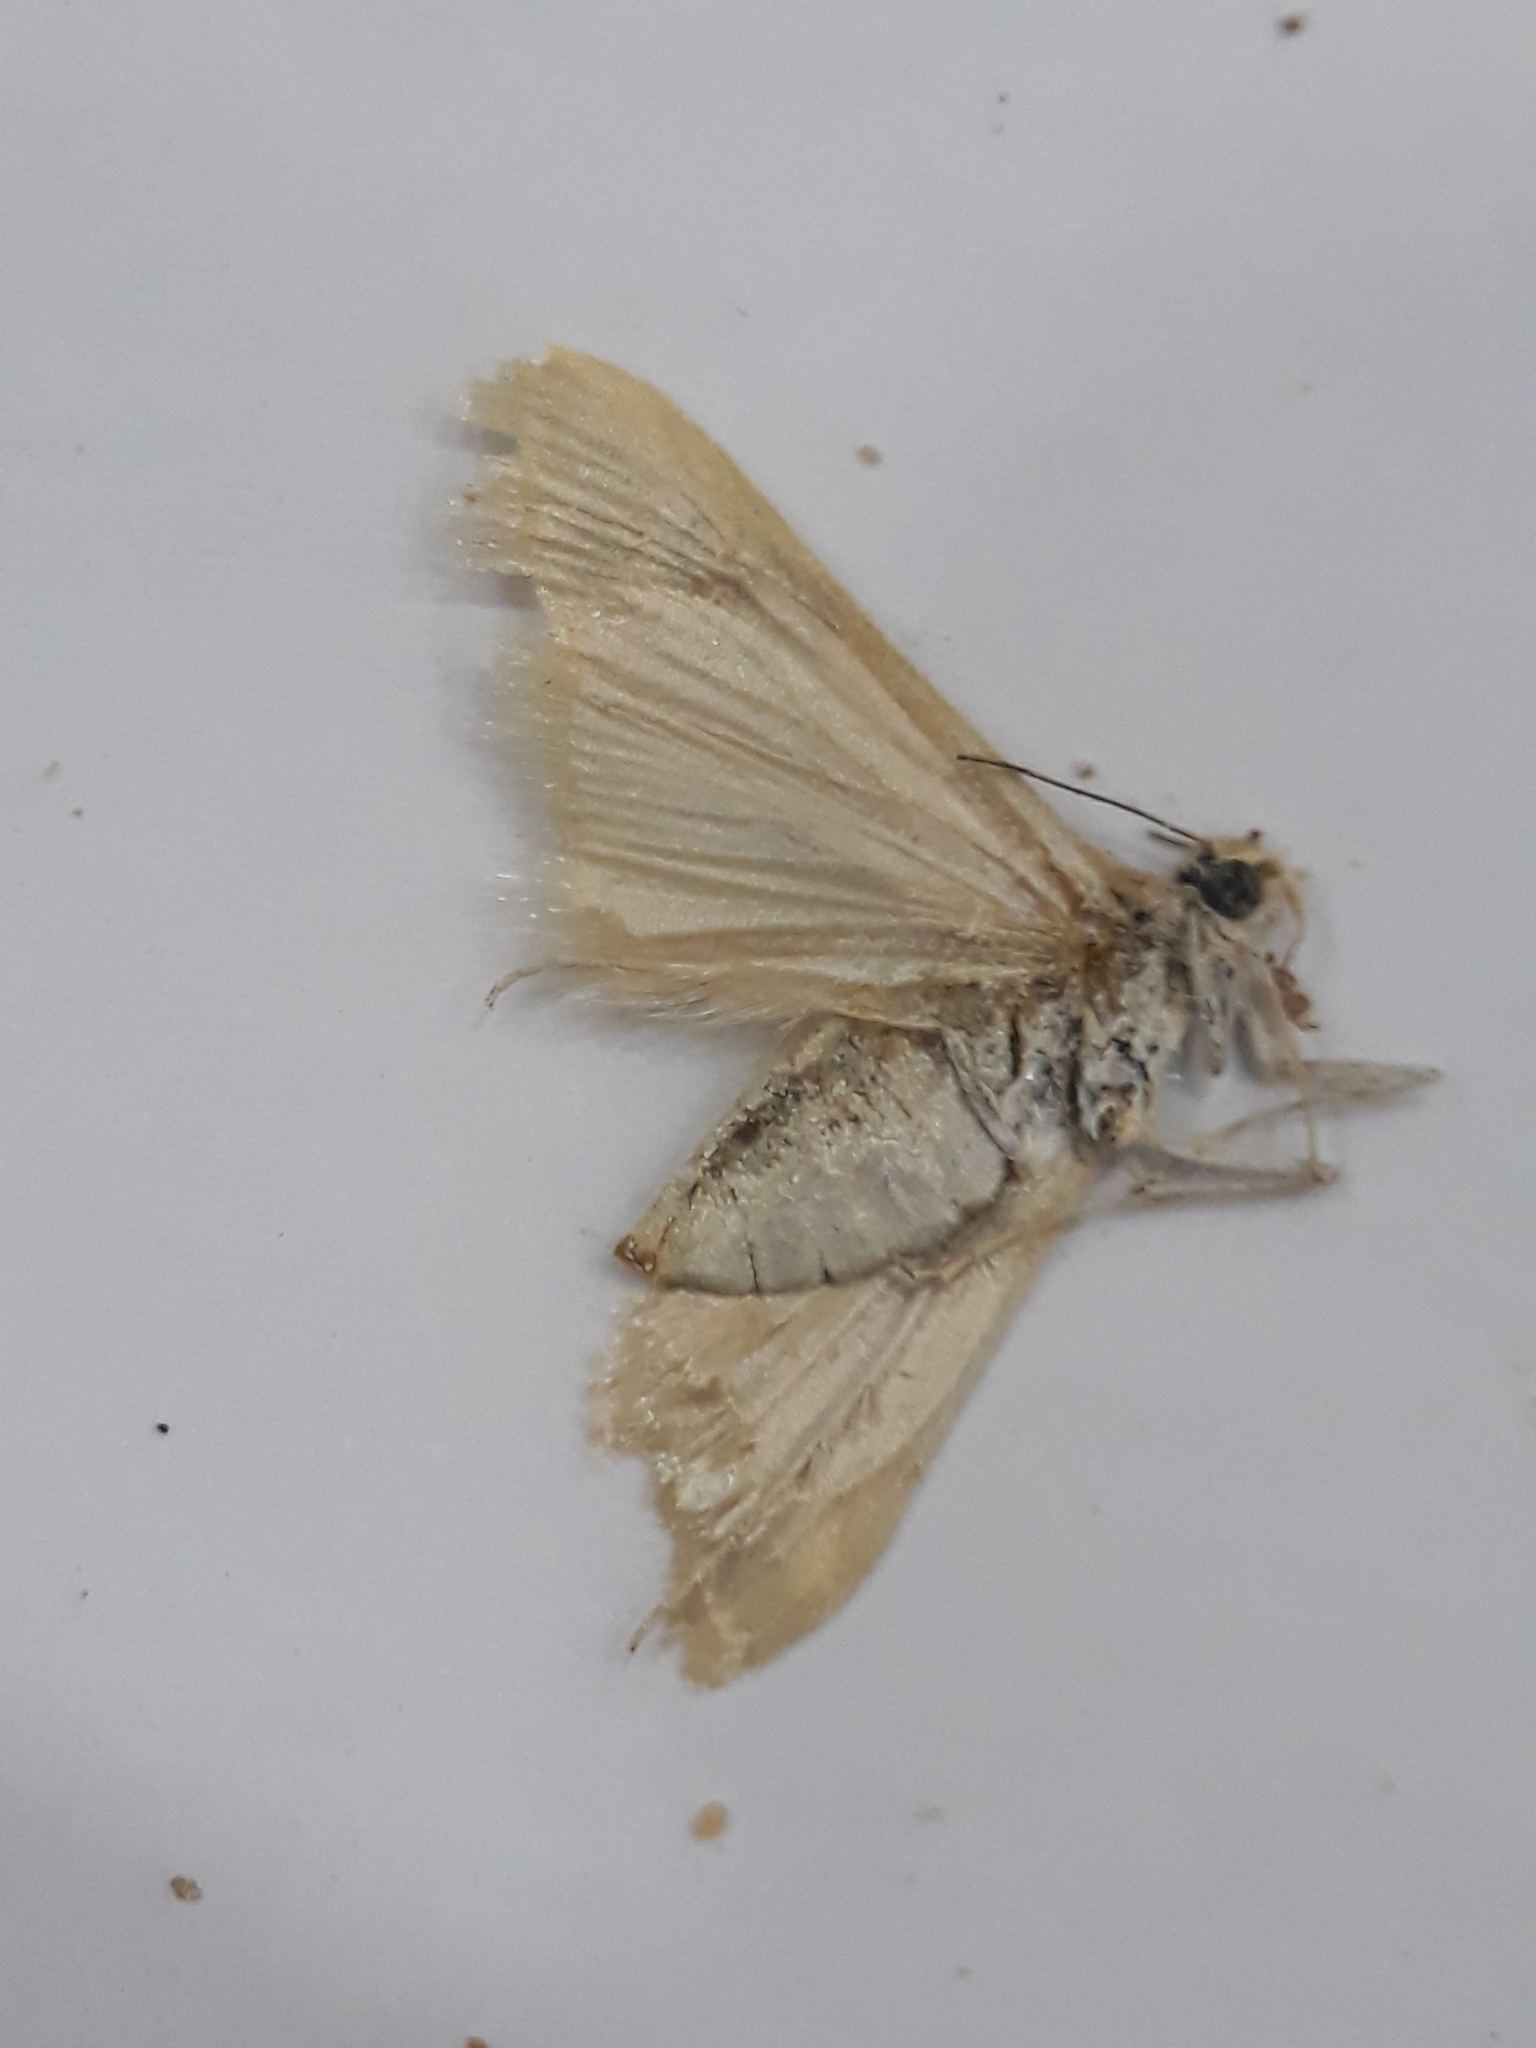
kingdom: Animalia
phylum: Arthropoda
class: Insecta
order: Lepidoptera
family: Crambidae
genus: Cornifrons
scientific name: Cornifrons ulceratalis
